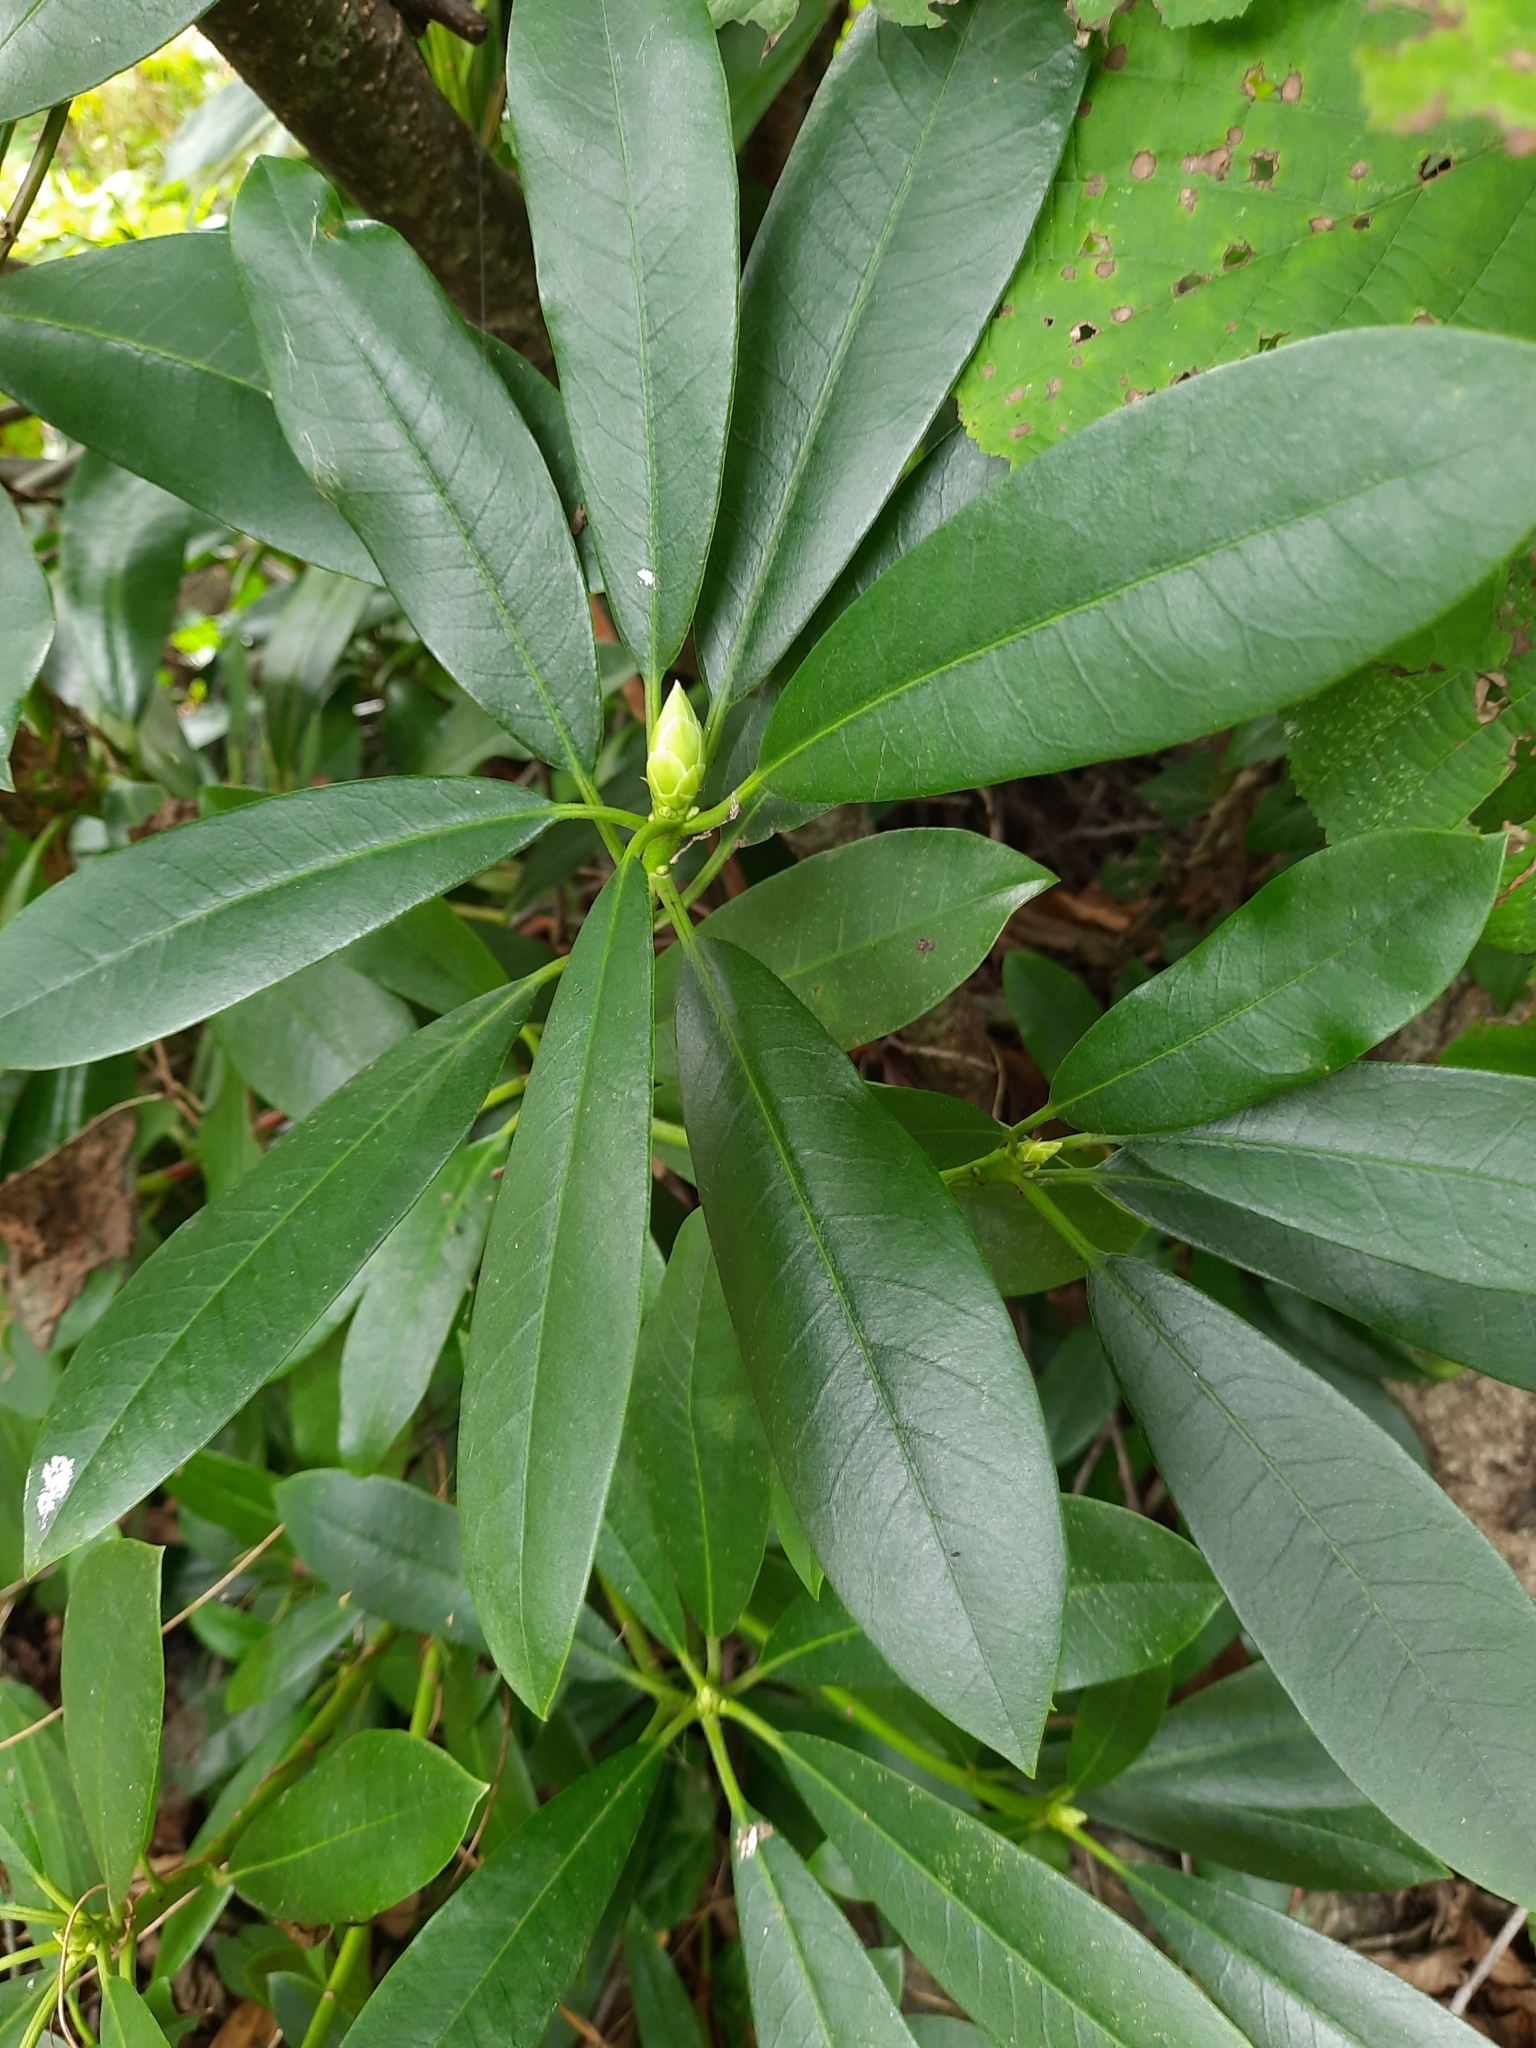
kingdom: Plantae
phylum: Tracheophyta
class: Magnoliopsida
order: Ericales
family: Ericaceae
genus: Rhododendron
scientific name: Rhododendron ponticum
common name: Rhododendron
